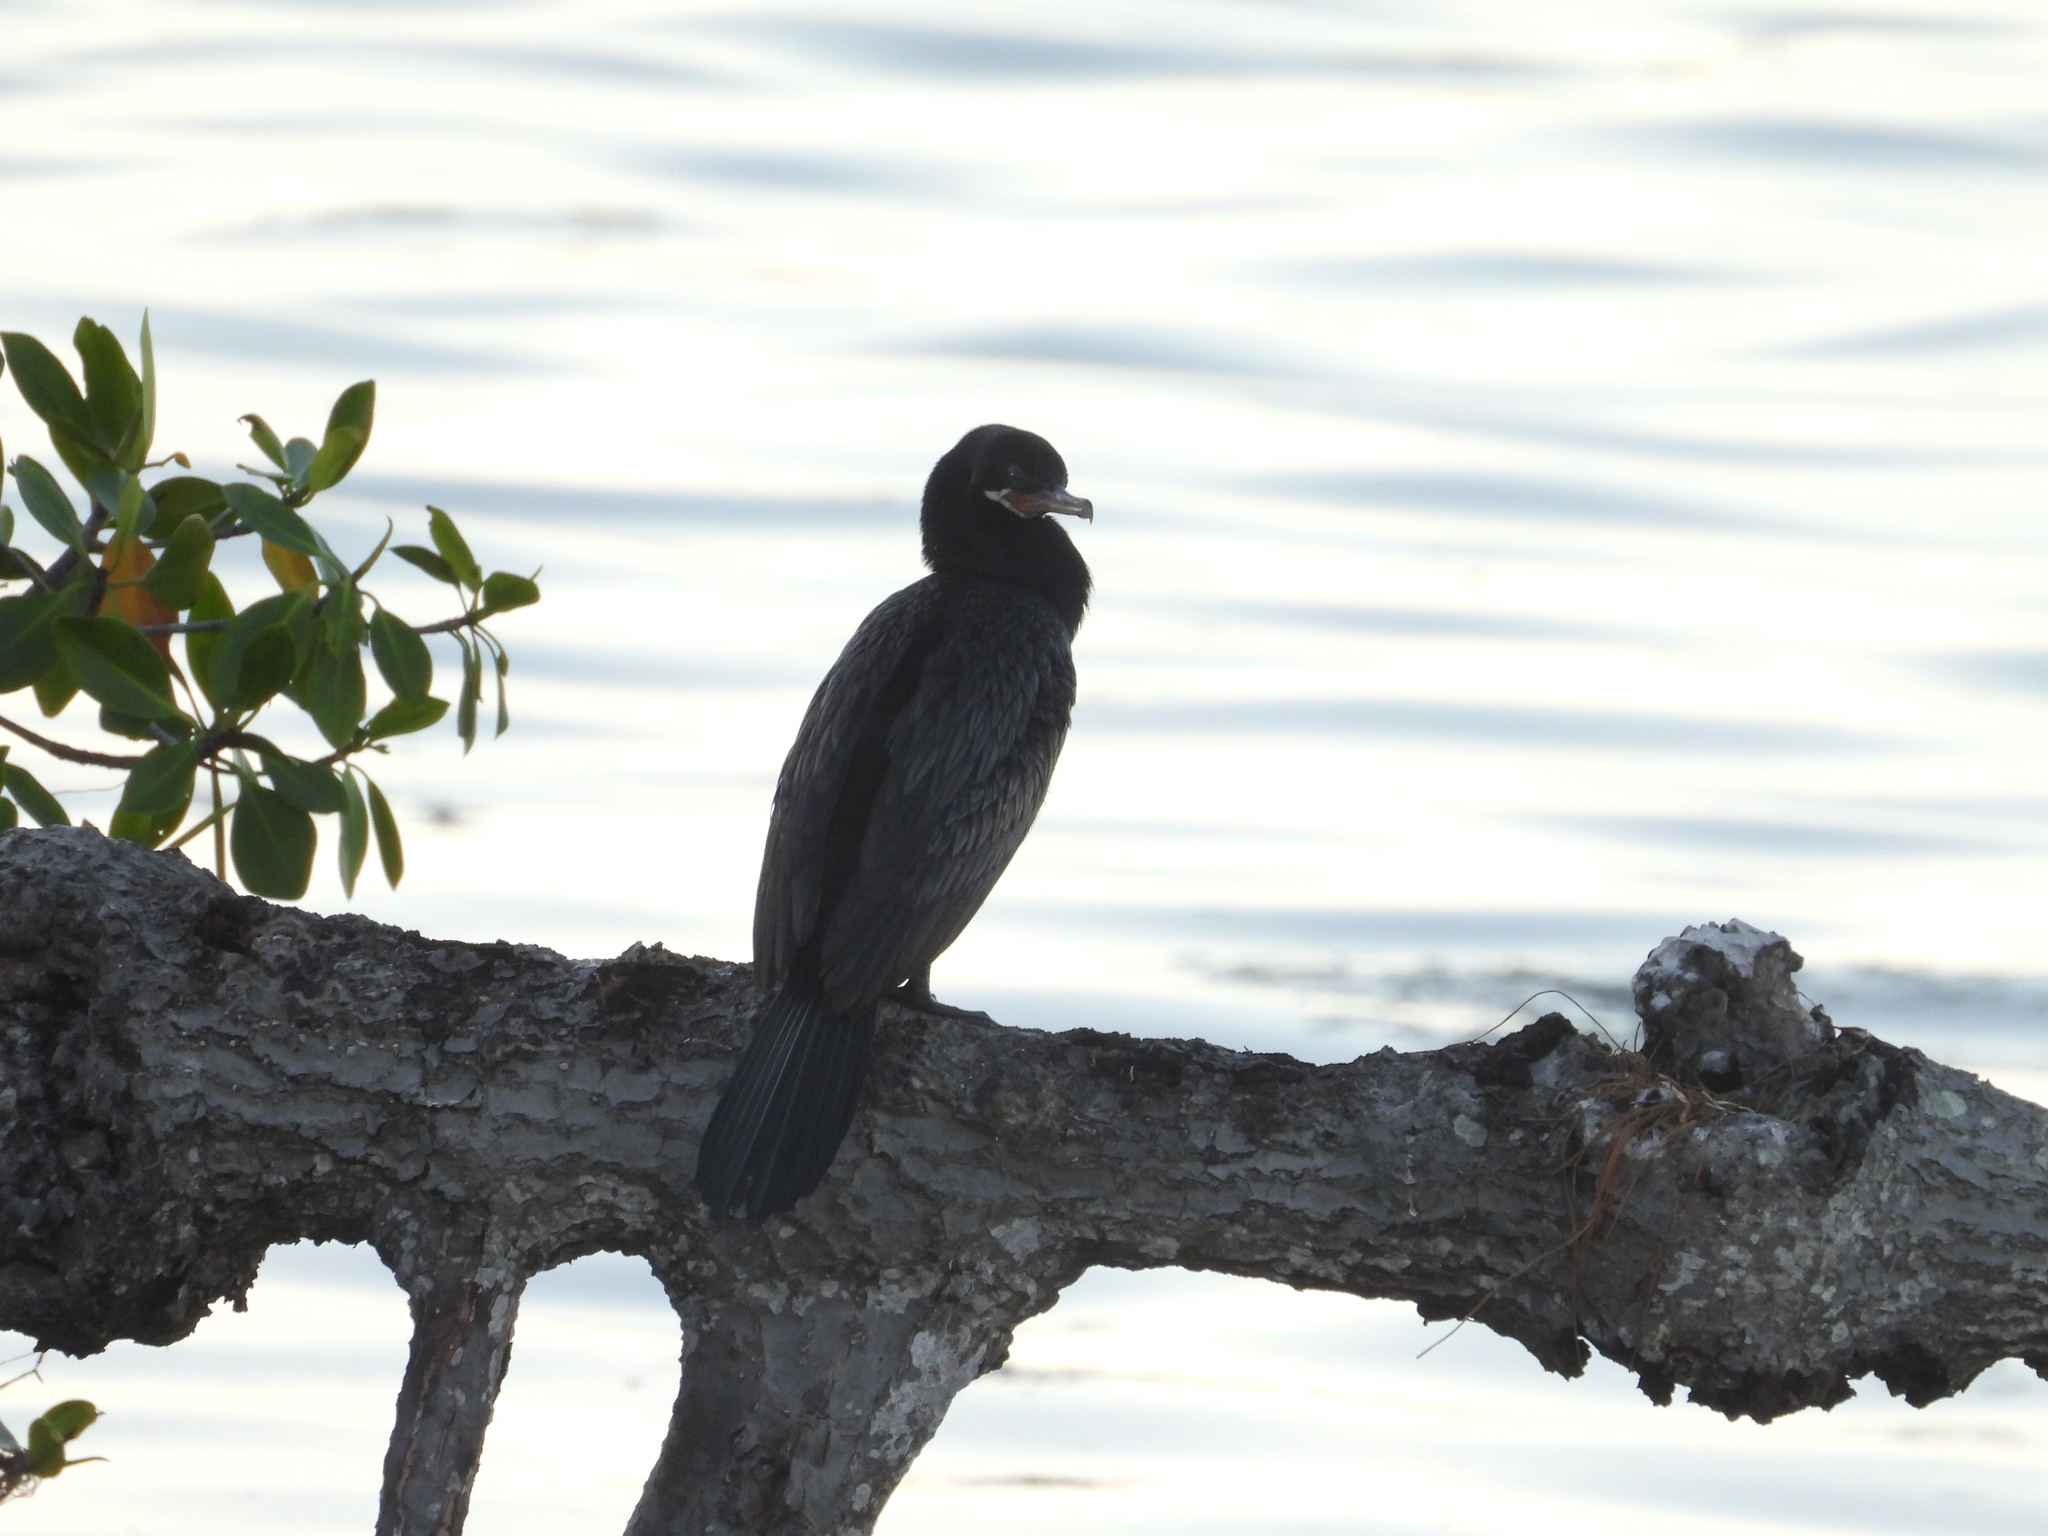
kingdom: Animalia
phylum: Chordata
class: Aves
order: Suliformes
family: Phalacrocoracidae
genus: Phalacrocorax
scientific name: Phalacrocorax brasilianus
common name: Neotropic cormorant
